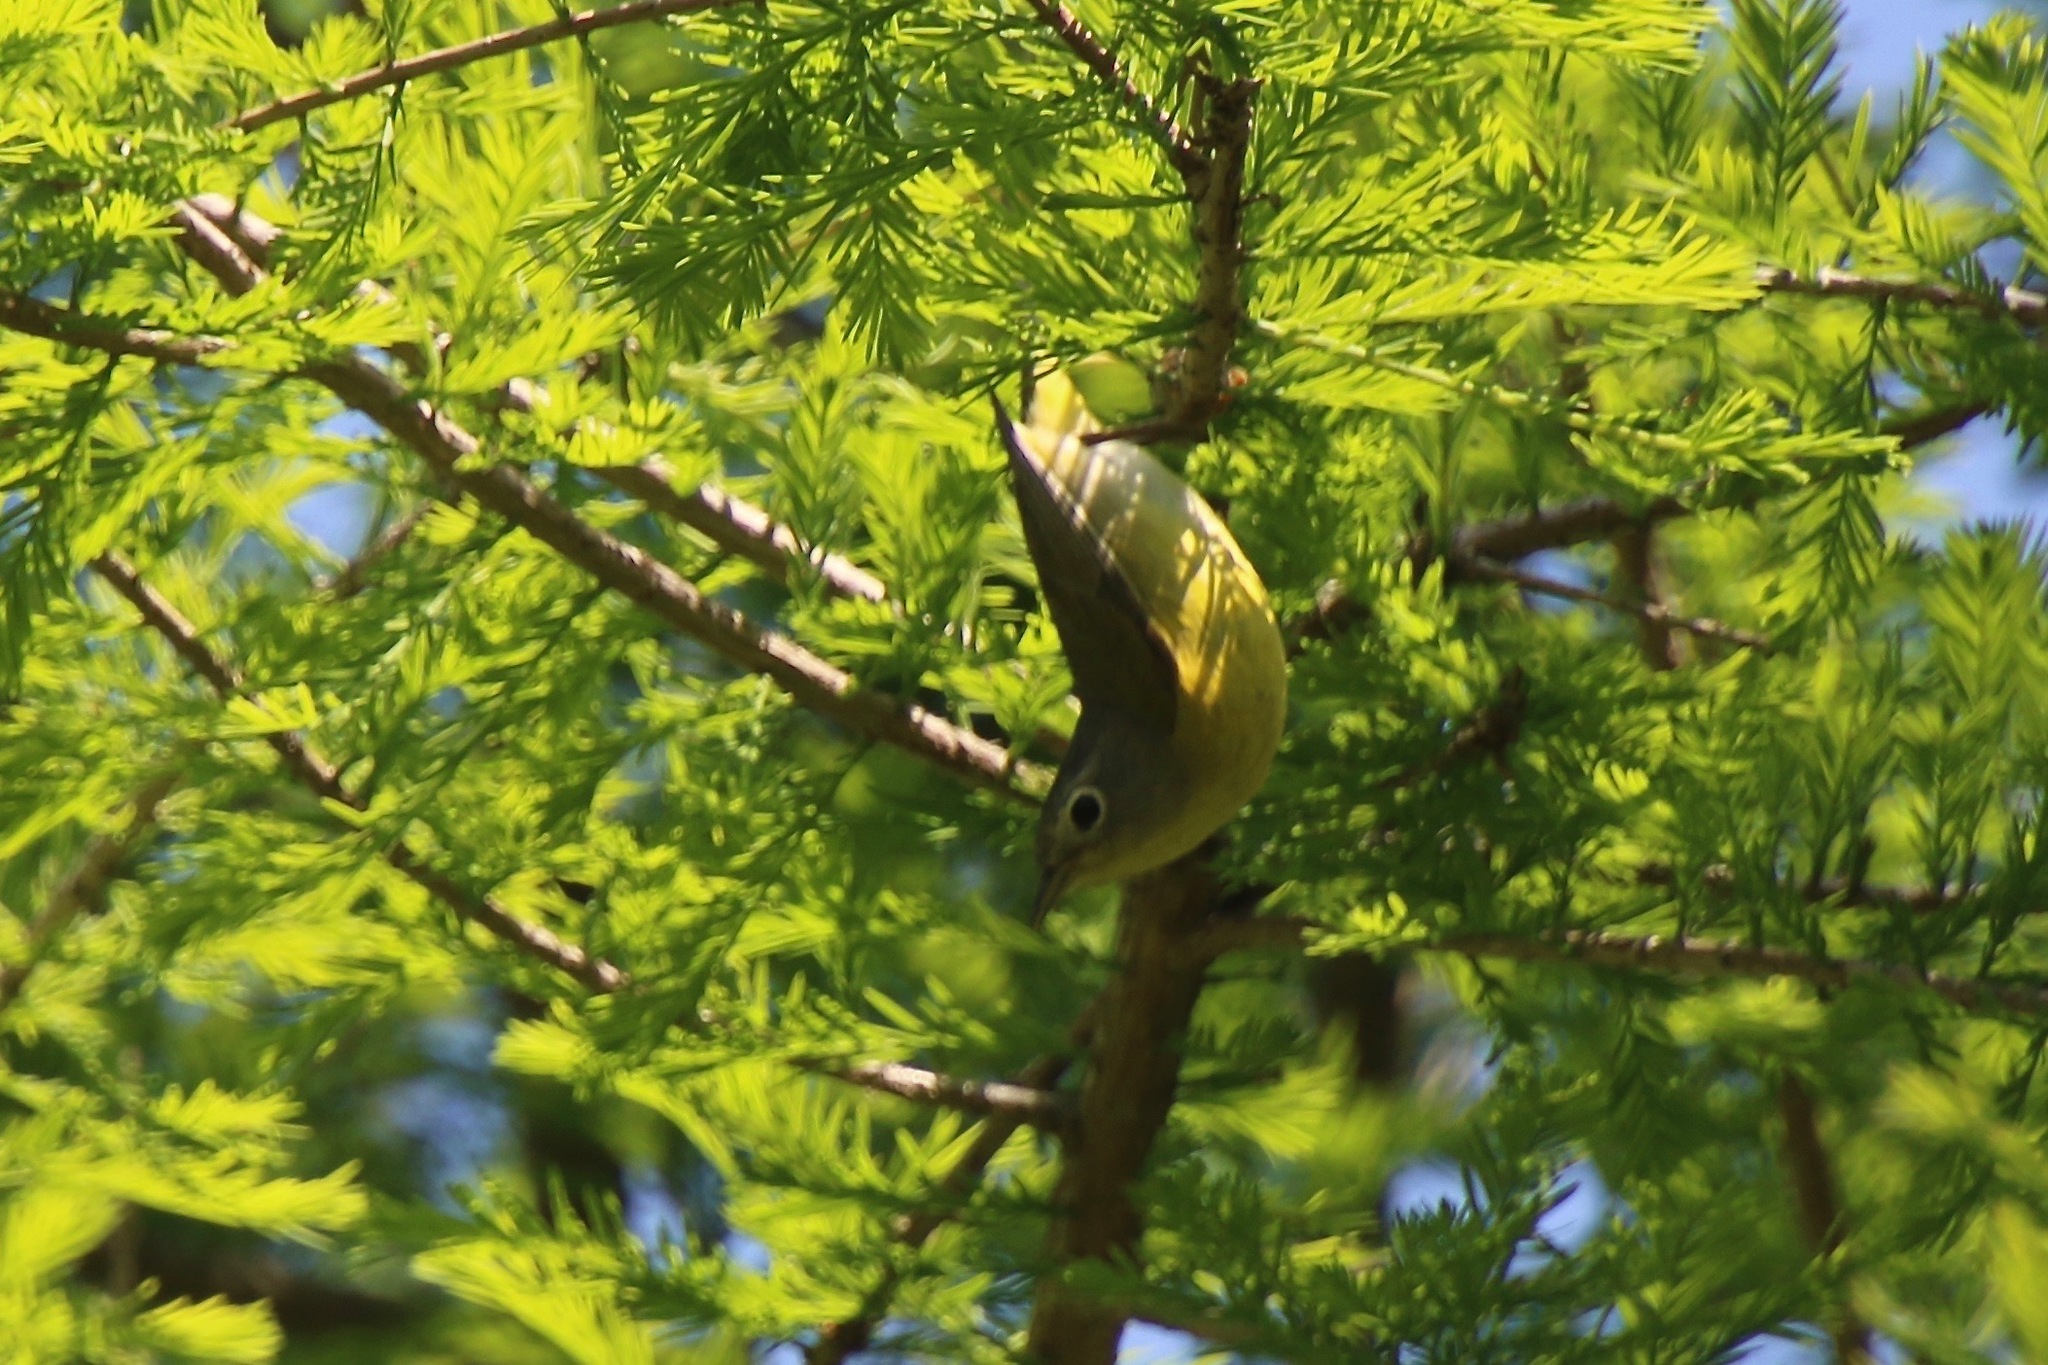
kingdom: Animalia
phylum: Chordata
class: Aves
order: Passeriformes
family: Parulidae
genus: Leiothlypis
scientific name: Leiothlypis ruficapilla
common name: Nashville warbler
